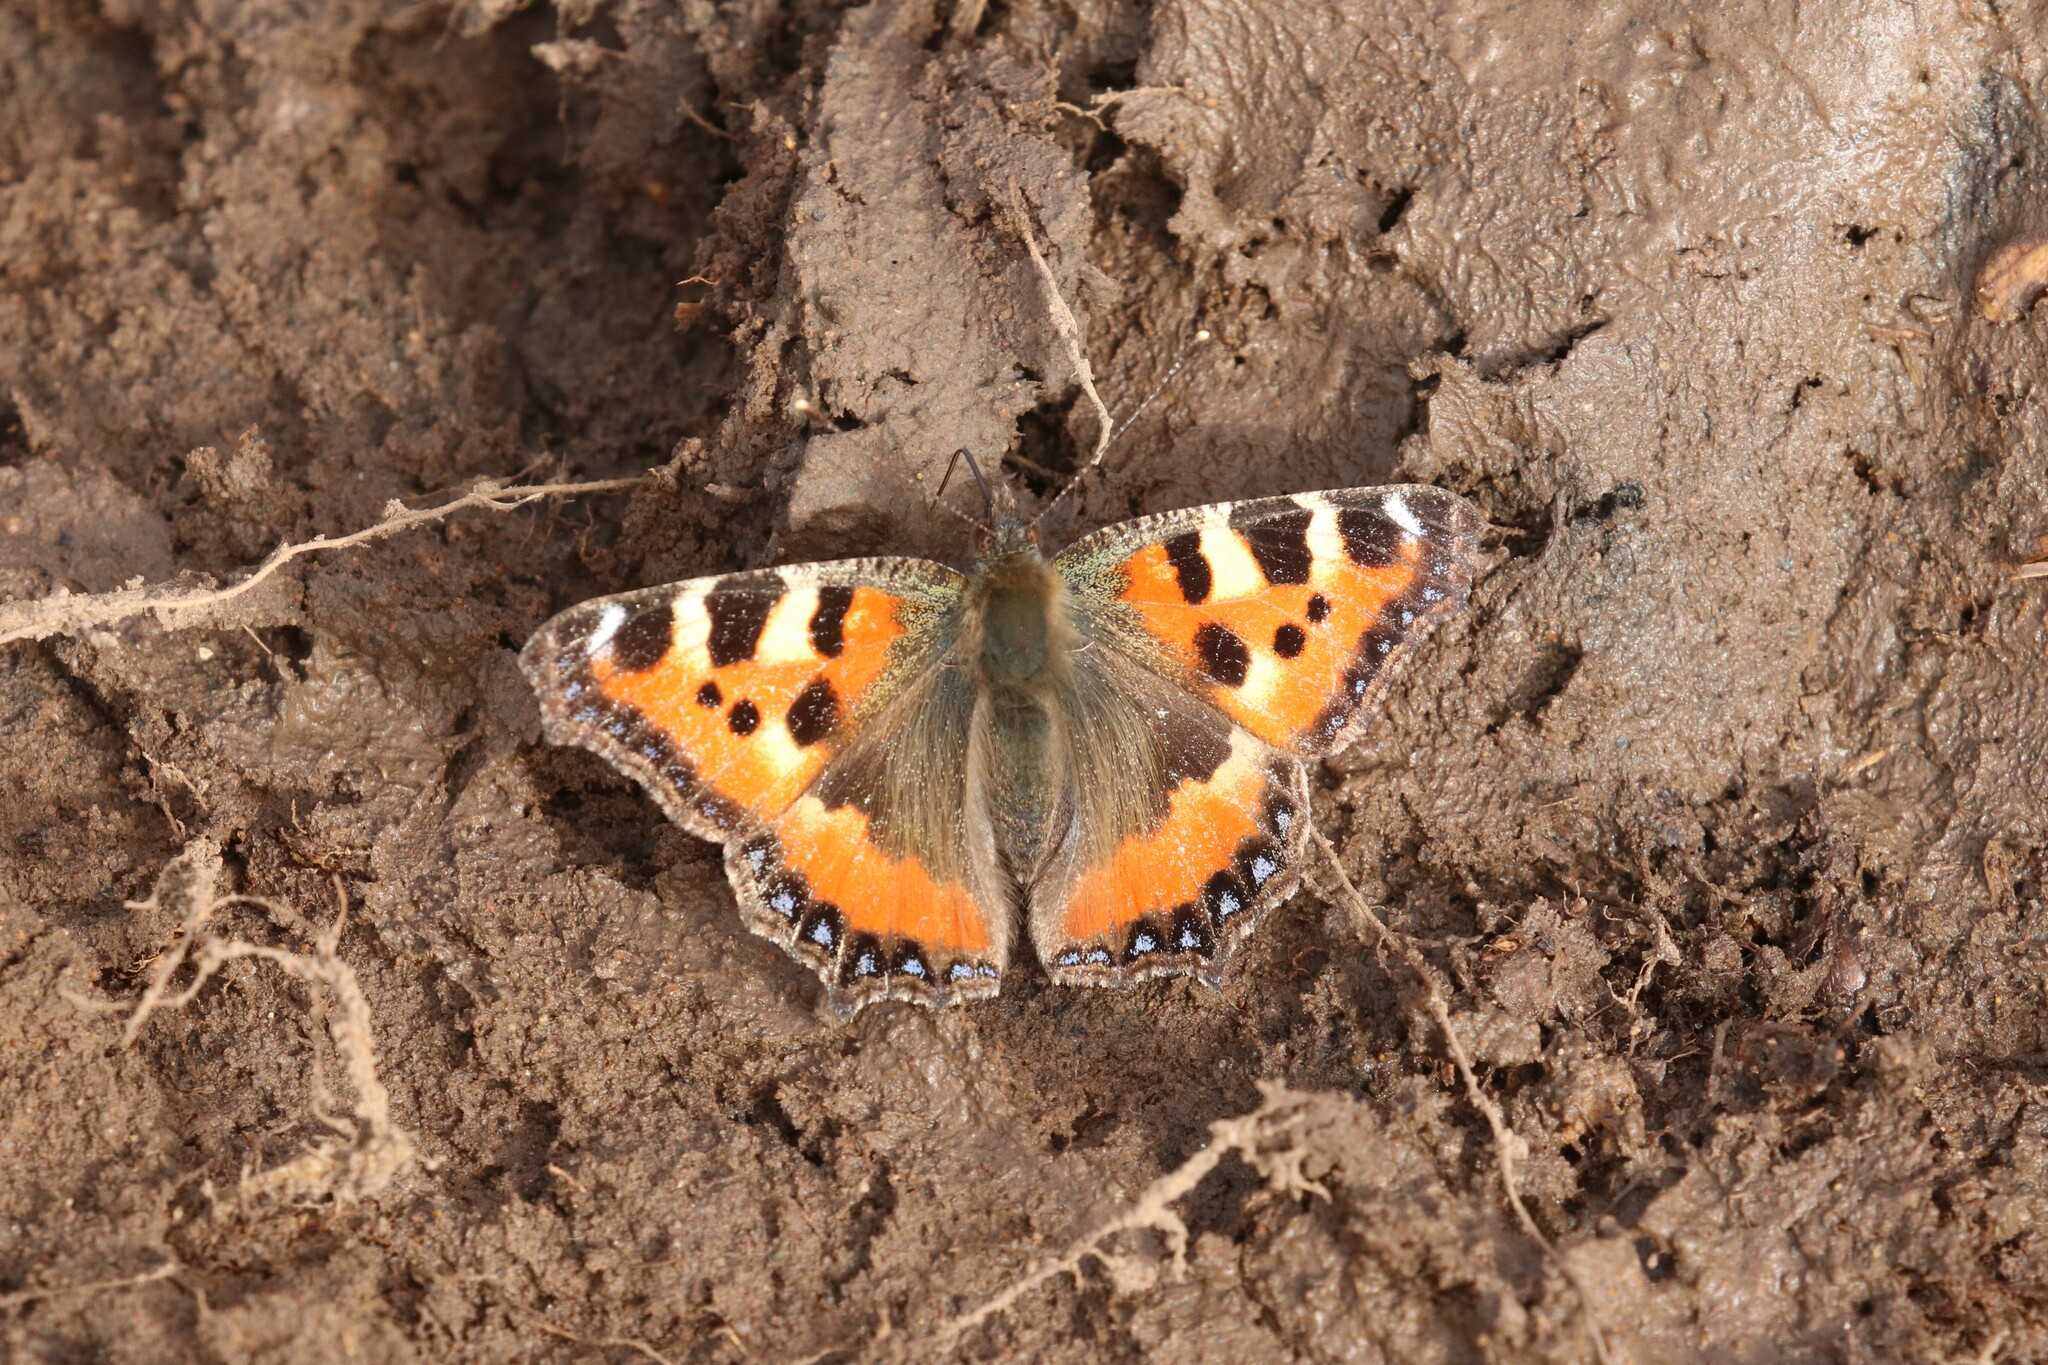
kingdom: Animalia
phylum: Arthropoda
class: Insecta
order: Lepidoptera
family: Nymphalidae
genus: Aglais
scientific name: Aglais urticae
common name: Small tortoiseshell
